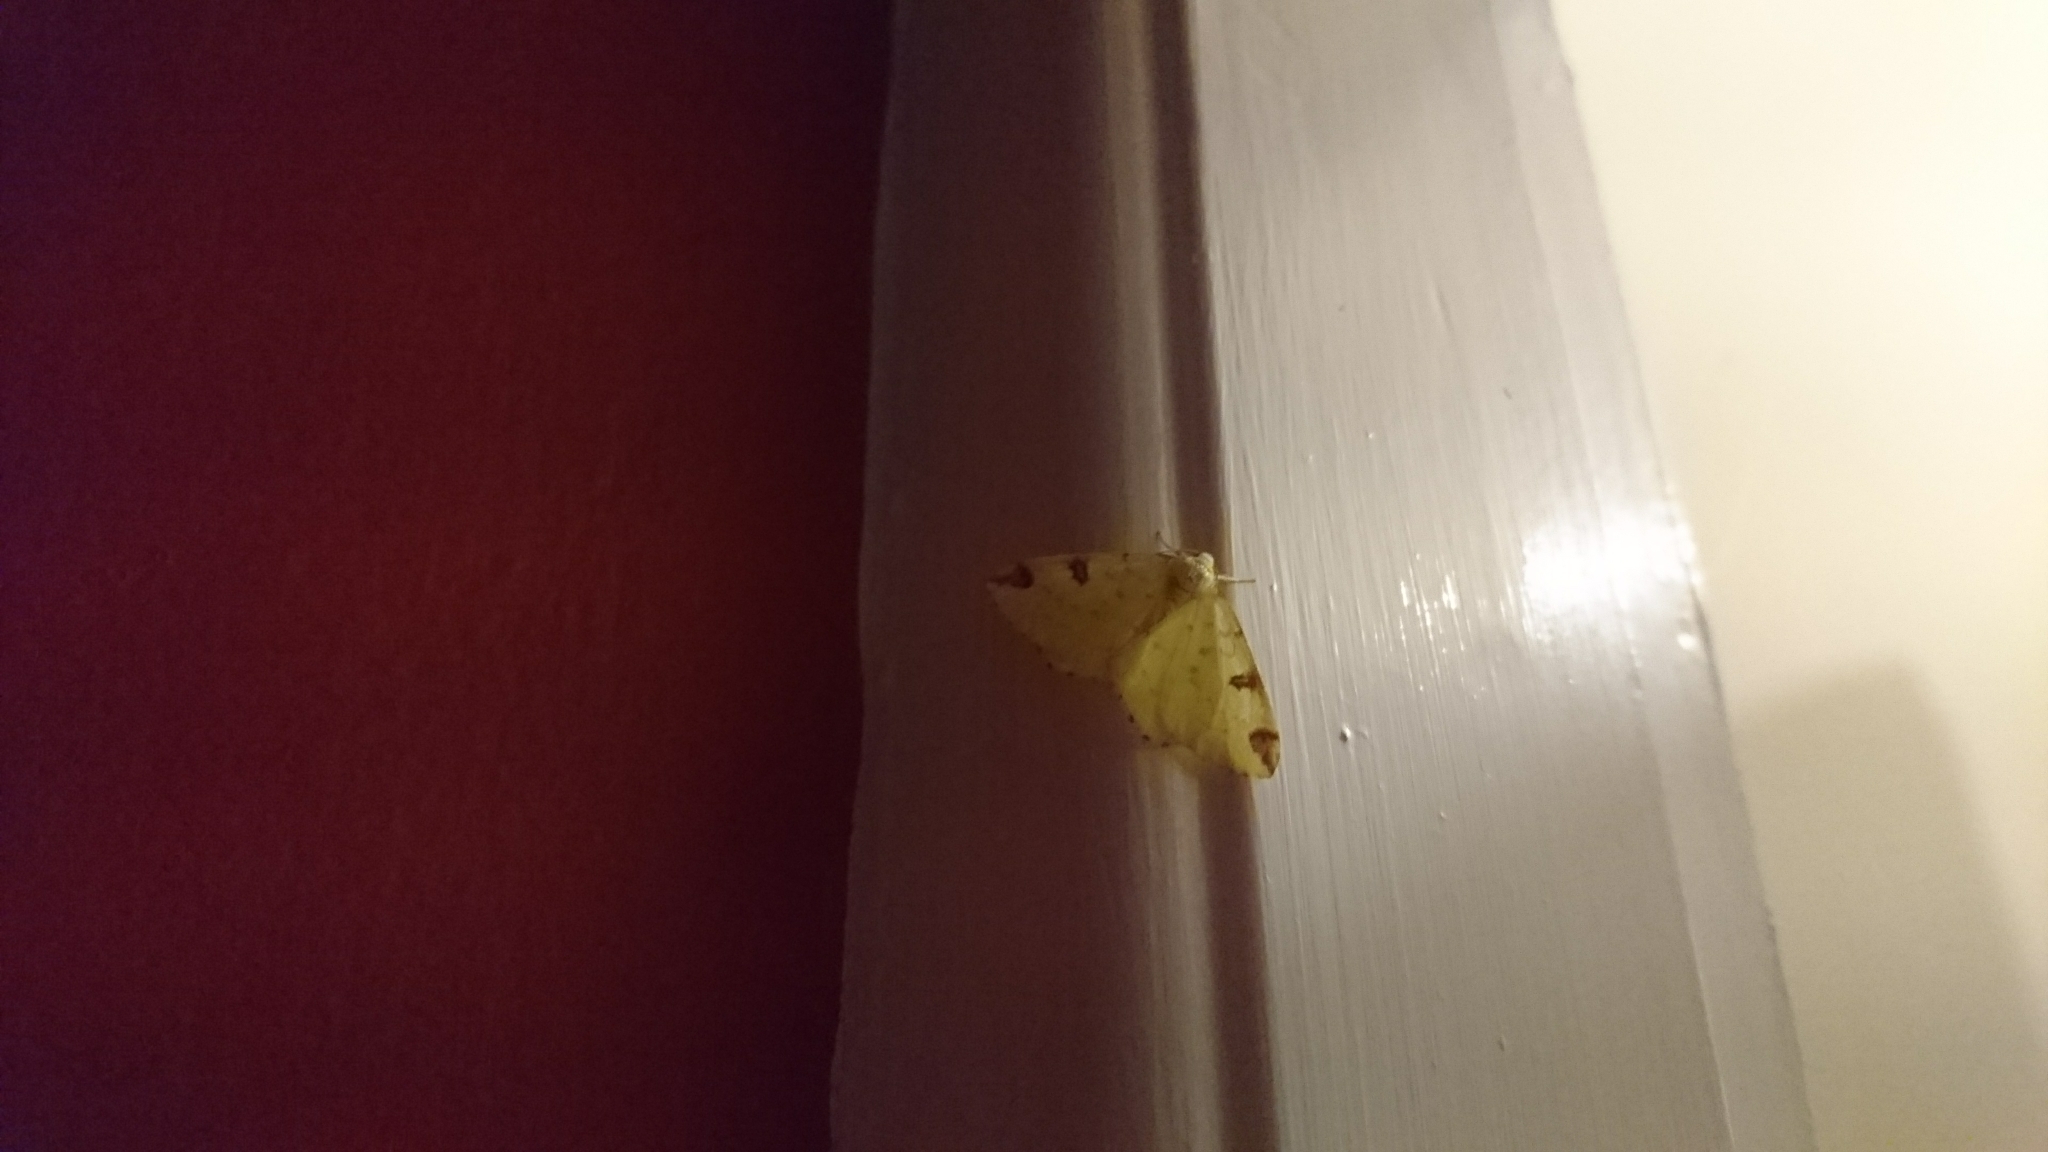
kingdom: Animalia
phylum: Arthropoda
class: Insecta
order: Lepidoptera
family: Geometridae
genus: Opisthograptis
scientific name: Opisthograptis luteolata
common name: Brimstone moth
